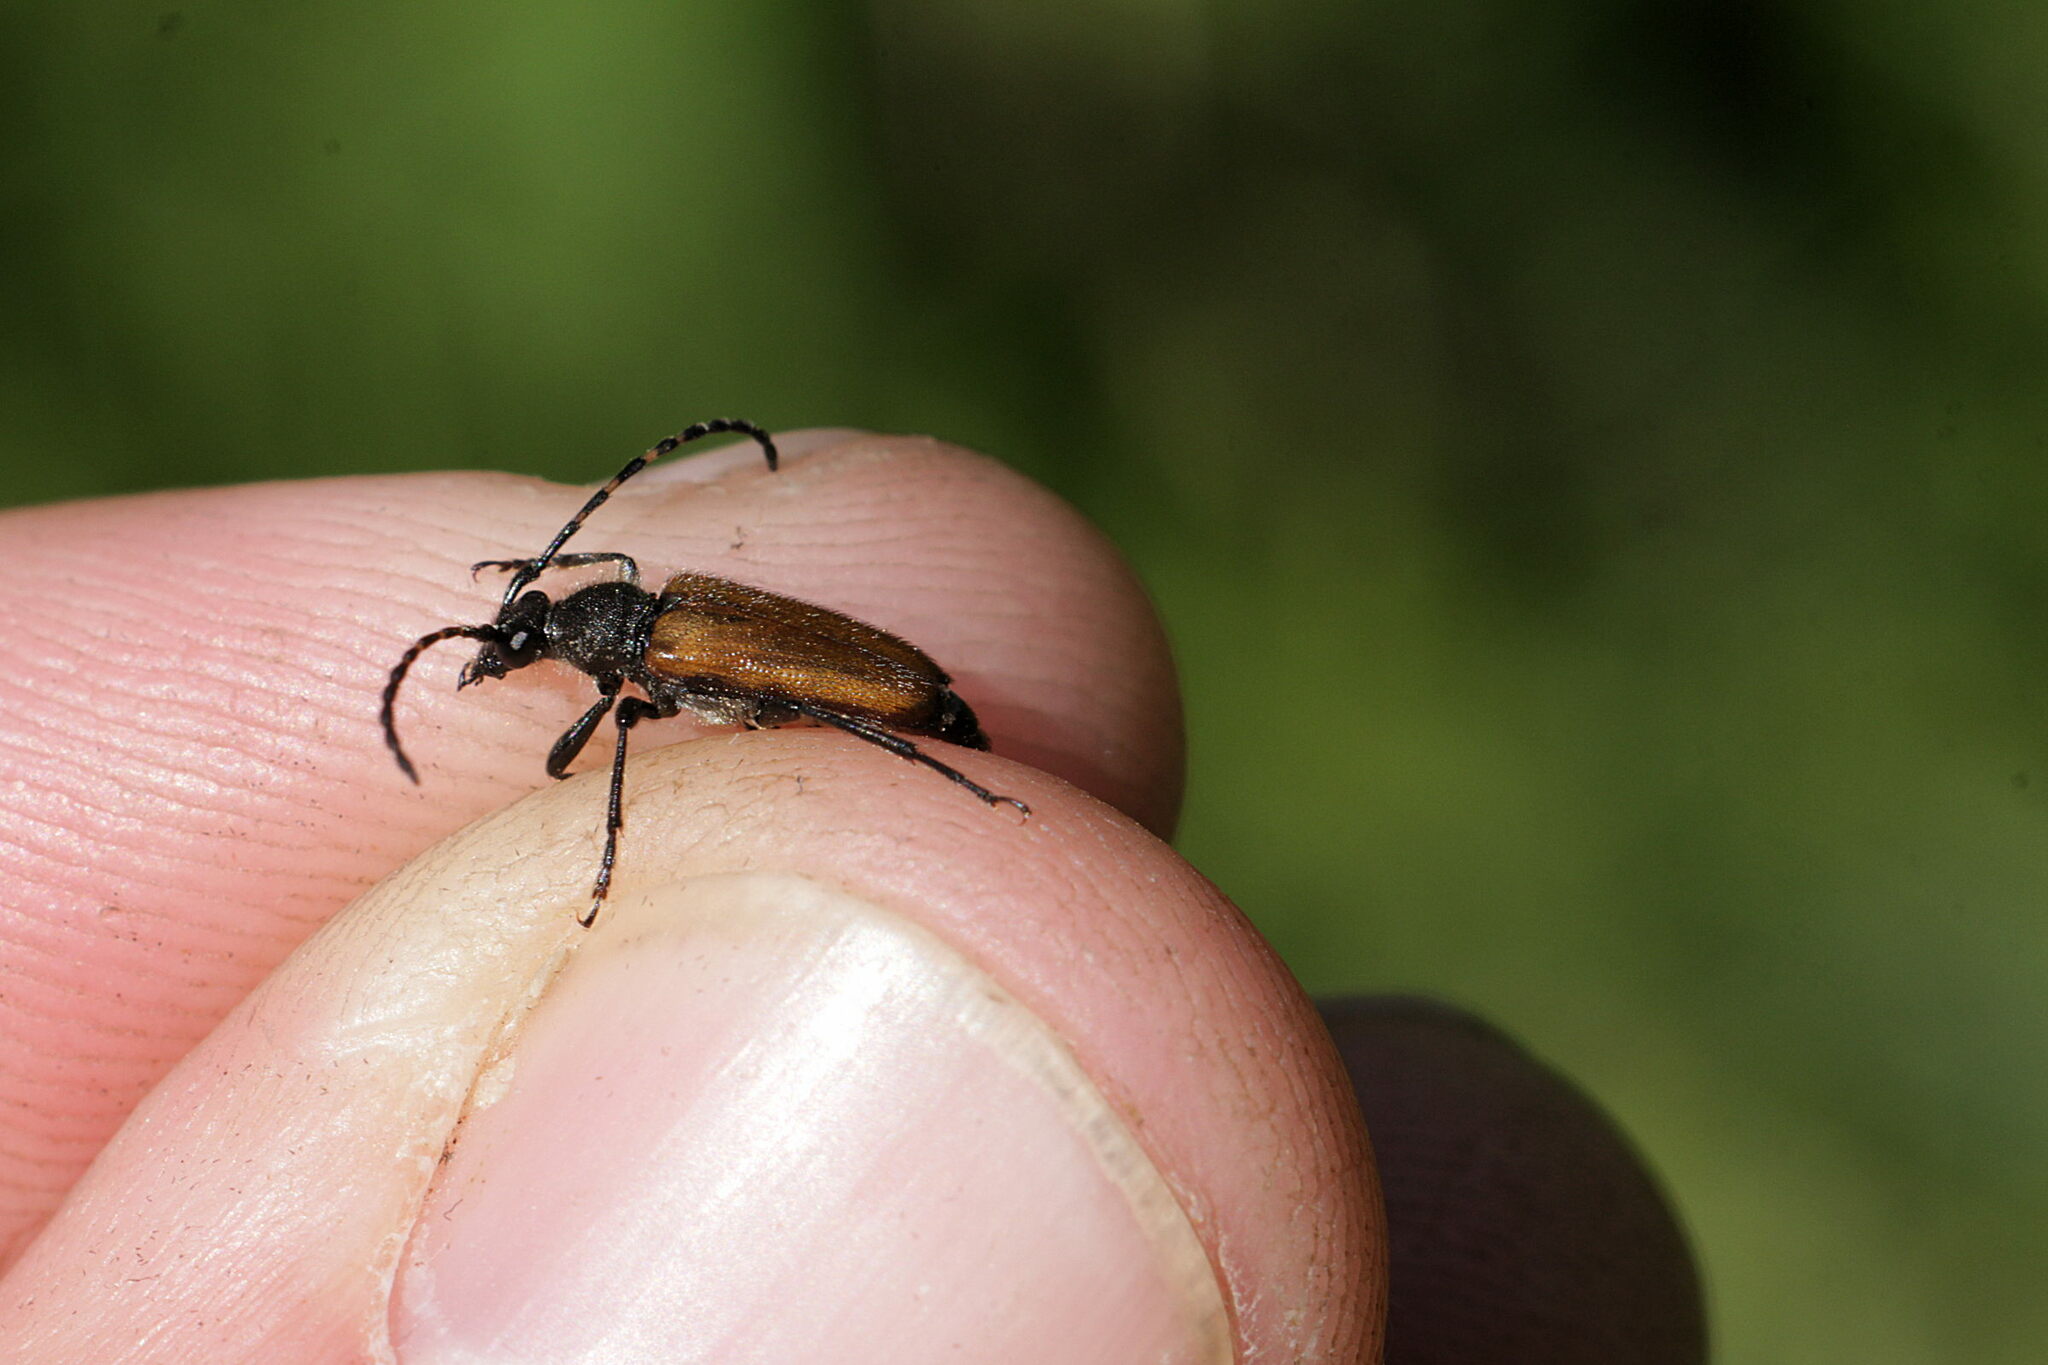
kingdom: Animalia
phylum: Arthropoda
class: Insecta
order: Coleoptera
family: Cerambycidae
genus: Paracorymbia
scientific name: Paracorymbia maculicornis
